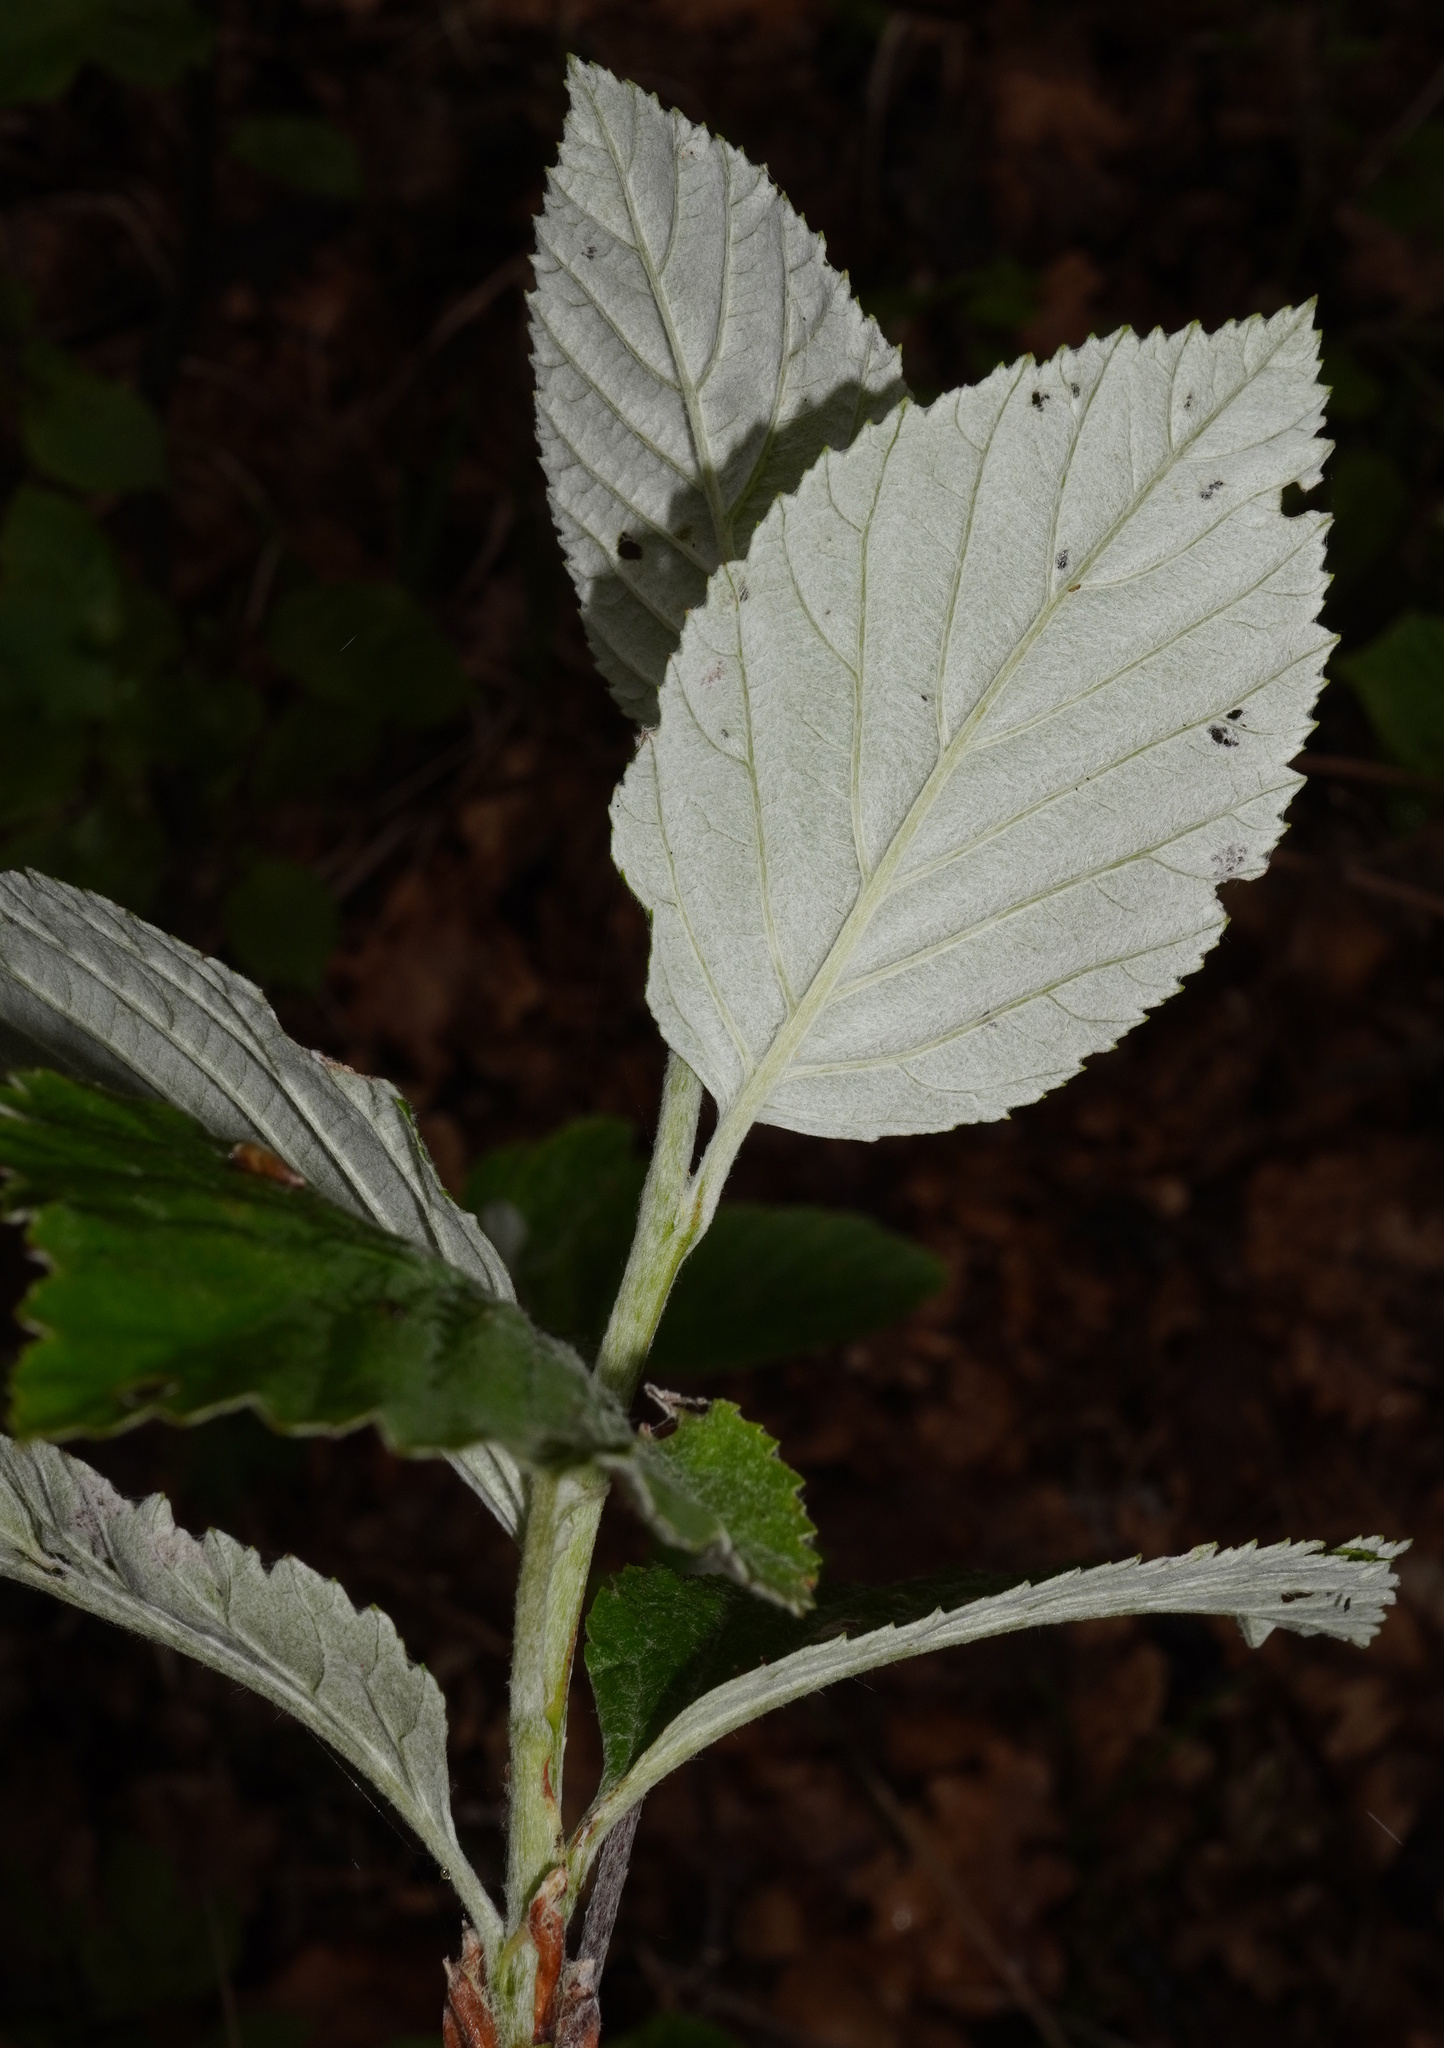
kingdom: Plantae
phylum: Tracheophyta
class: Magnoliopsida
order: Rosales
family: Rosaceae
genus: Aria
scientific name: Aria edulis
